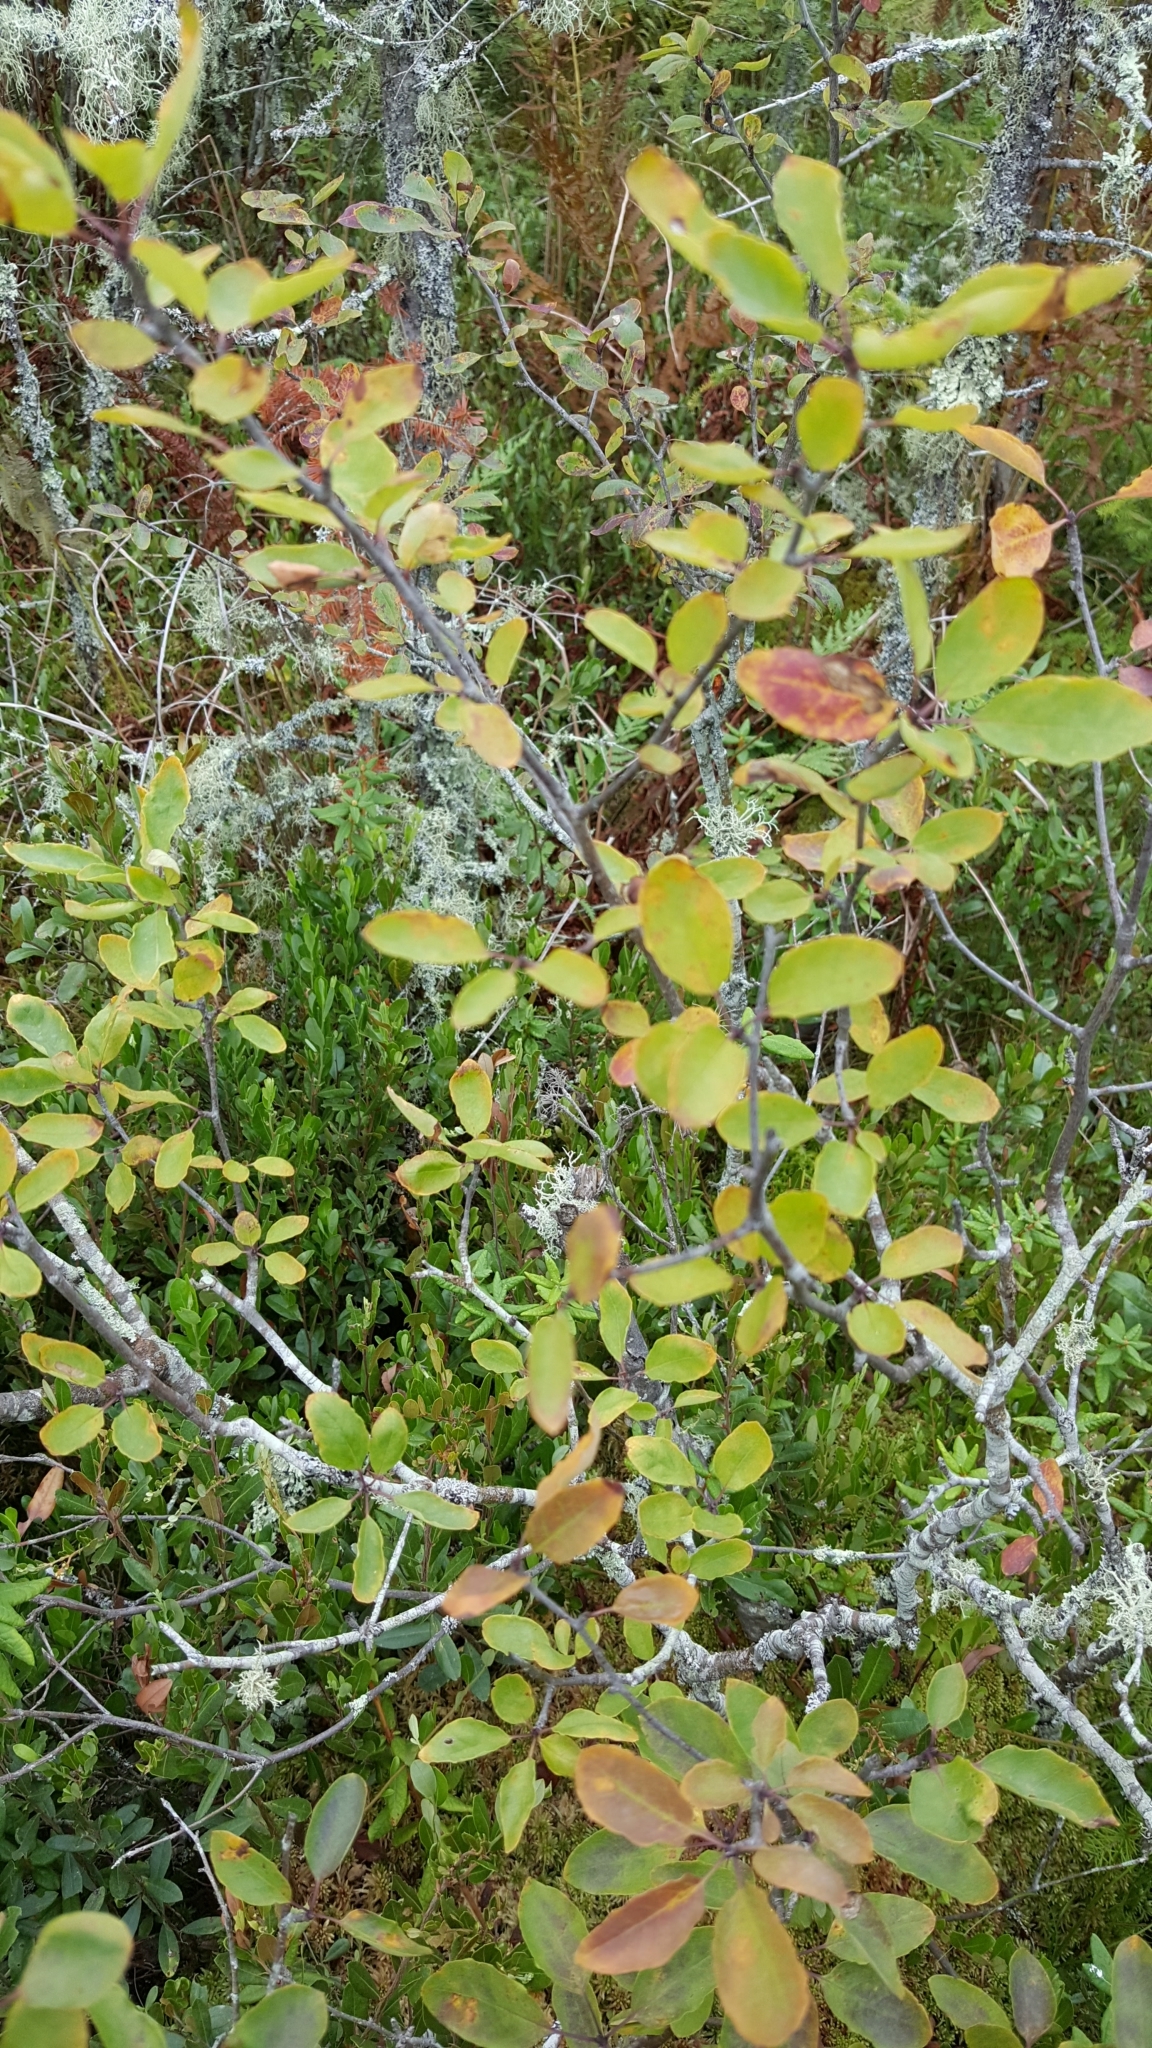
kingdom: Plantae
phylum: Tracheophyta
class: Magnoliopsida
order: Aquifoliales
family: Aquifoliaceae
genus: Ilex
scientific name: Ilex mucronata
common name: Catberry
